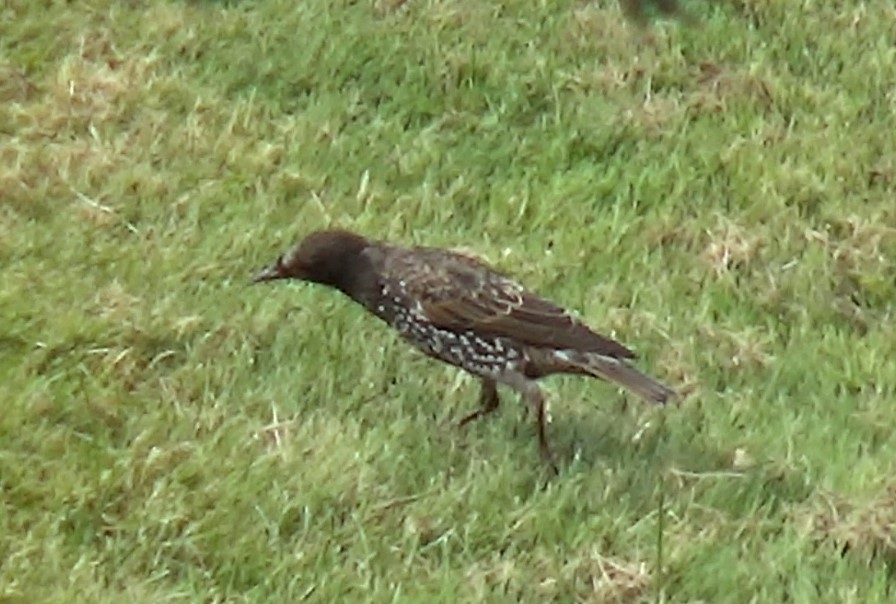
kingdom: Animalia
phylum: Chordata
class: Aves
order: Passeriformes
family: Sturnidae
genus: Sturnus
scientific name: Sturnus vulgaris
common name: Common starling
